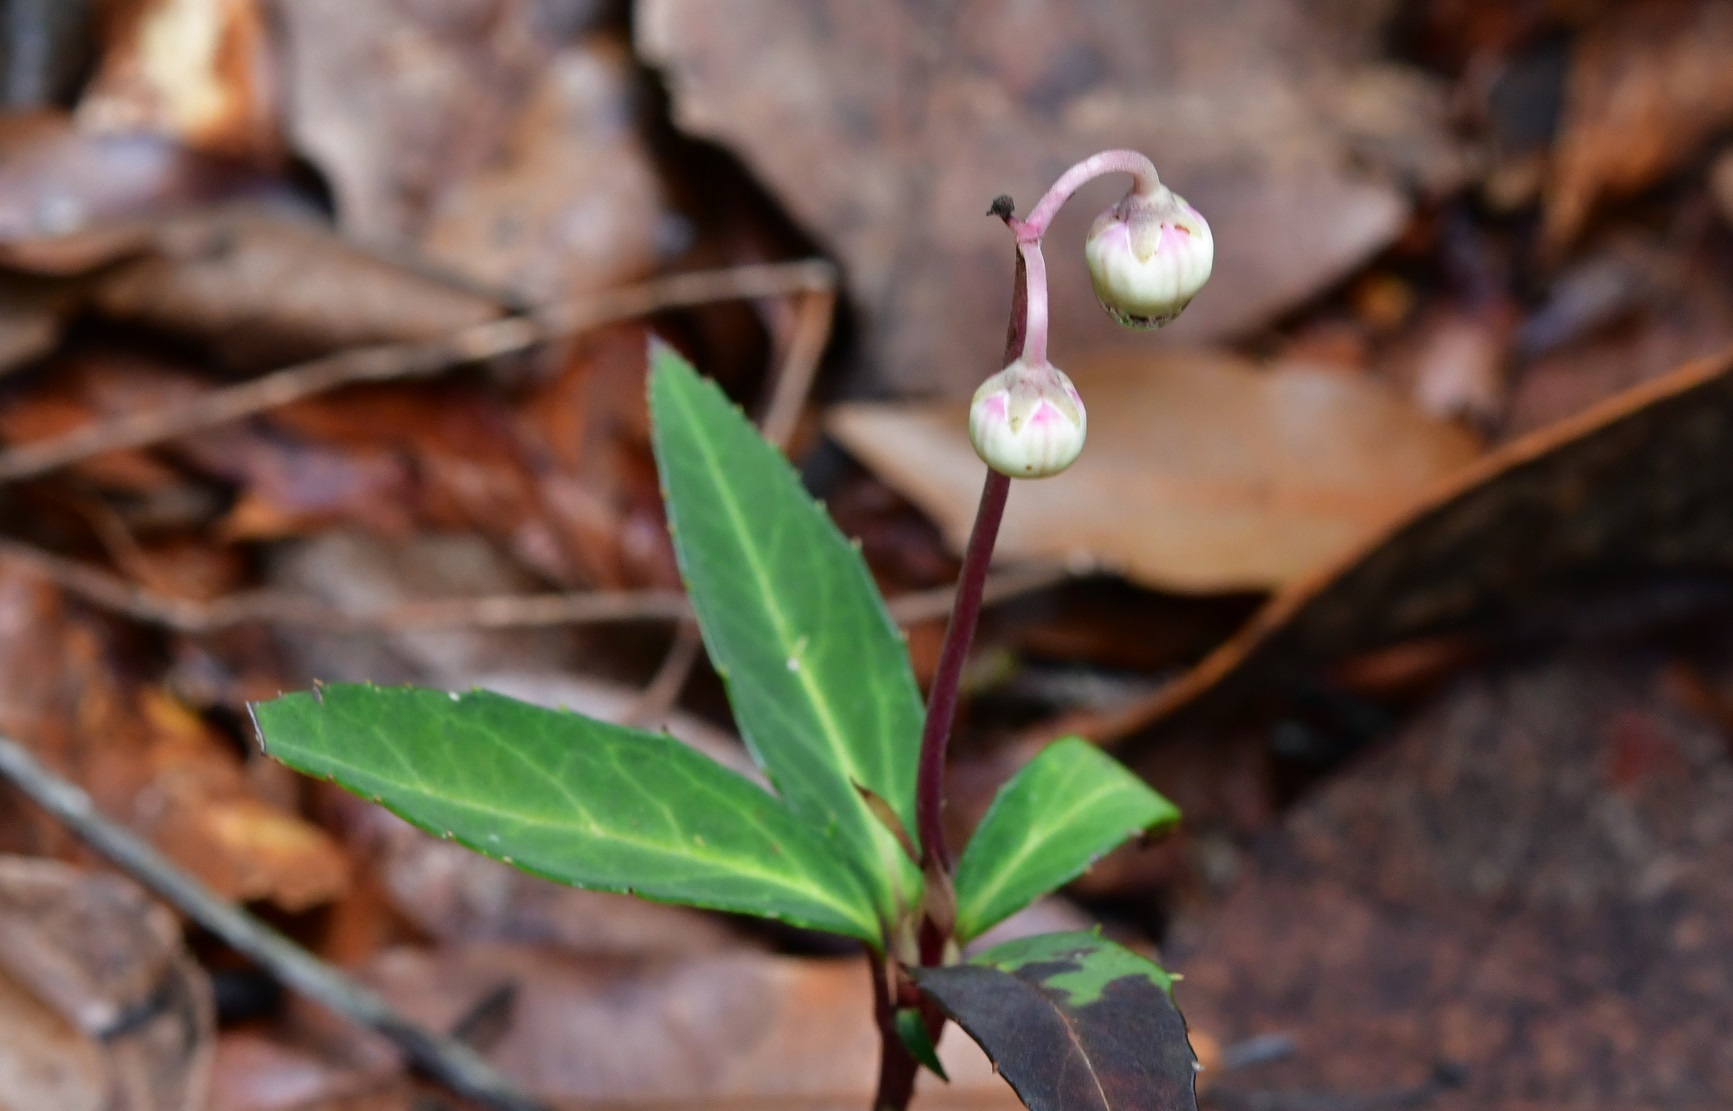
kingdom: Plantae
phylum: Tracheophyta
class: Magnoliopsida
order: Ericales
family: Ericaceae
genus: Chimaphila
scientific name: Chimaphila maculata
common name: Spotted pipsissewa
